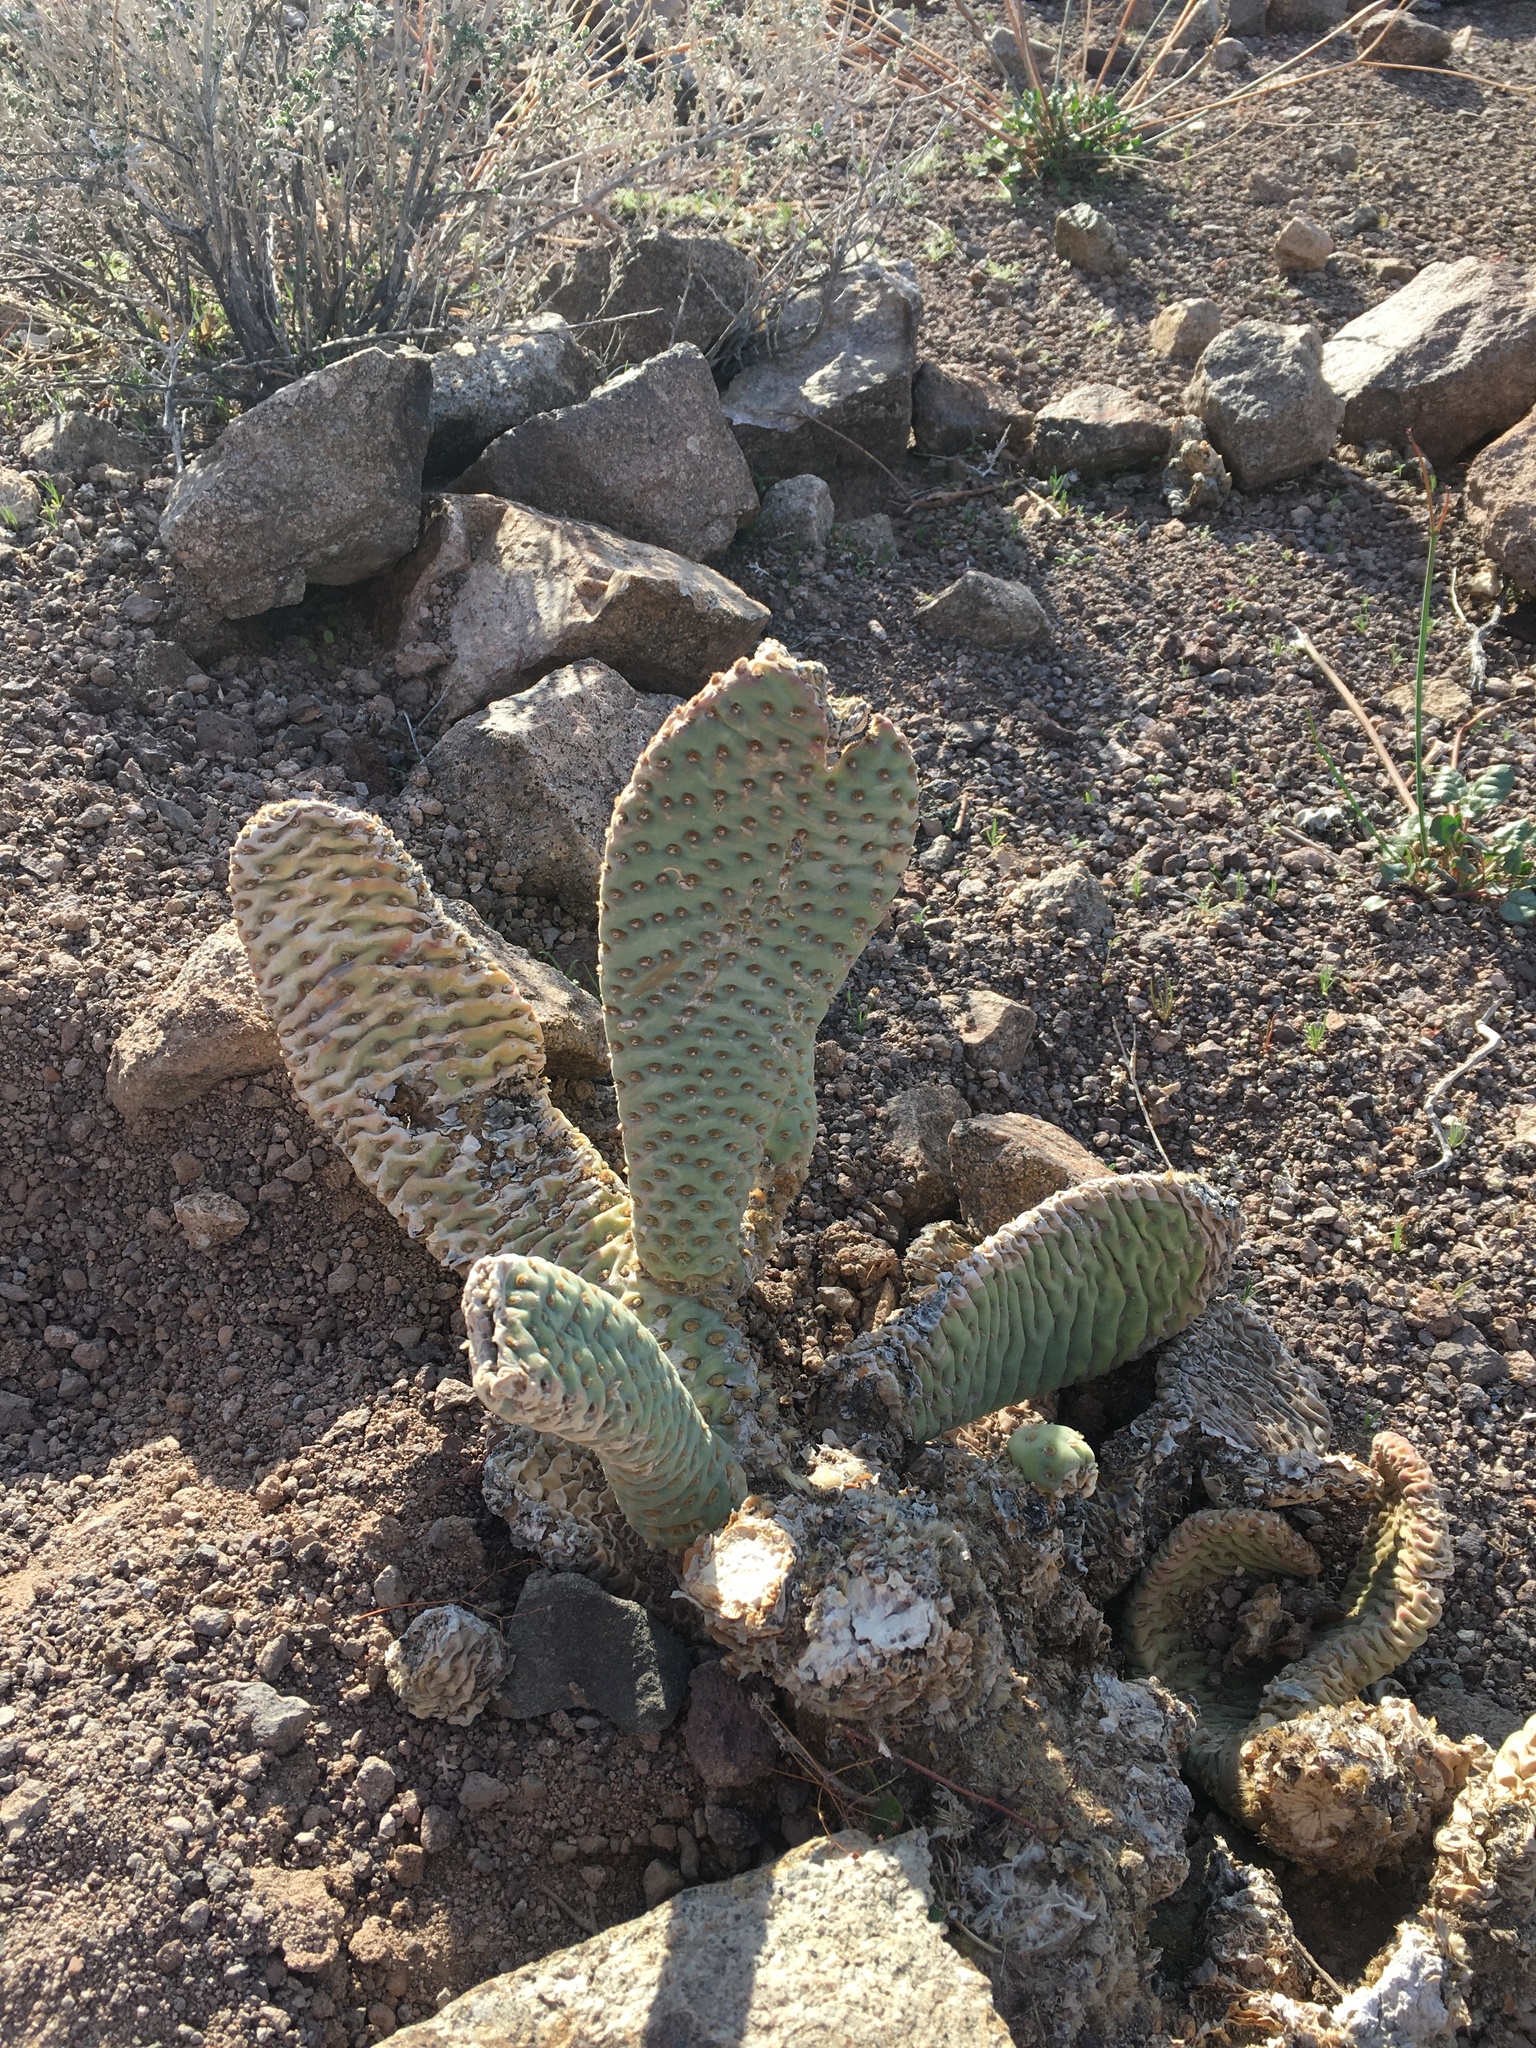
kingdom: Plantae
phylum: Tracheophyta
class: Magnoliopsida
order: Caryophyllales
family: Cactaceae
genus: Opuntia
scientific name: Opuntia basilaris
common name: Beavertail prickly-pear
